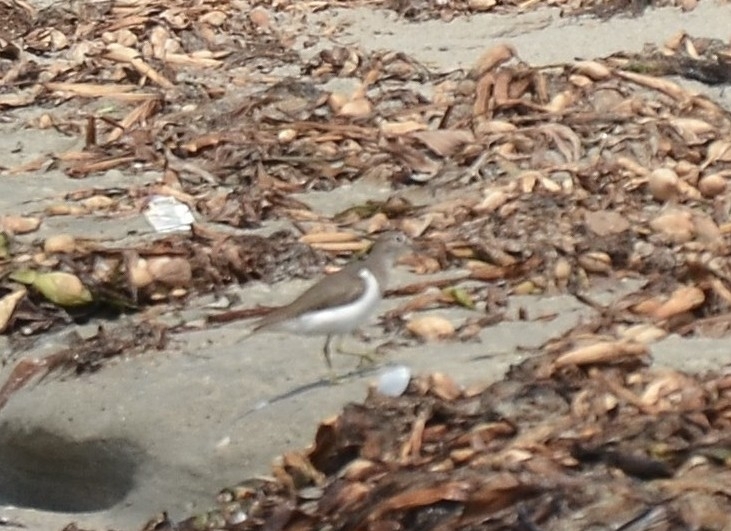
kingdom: Animalia
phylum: Chordata
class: Aves
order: Charadriiformes
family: Scolopacidae
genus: Actitis
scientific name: Actitis hypoleucos
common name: Common sandpiper
